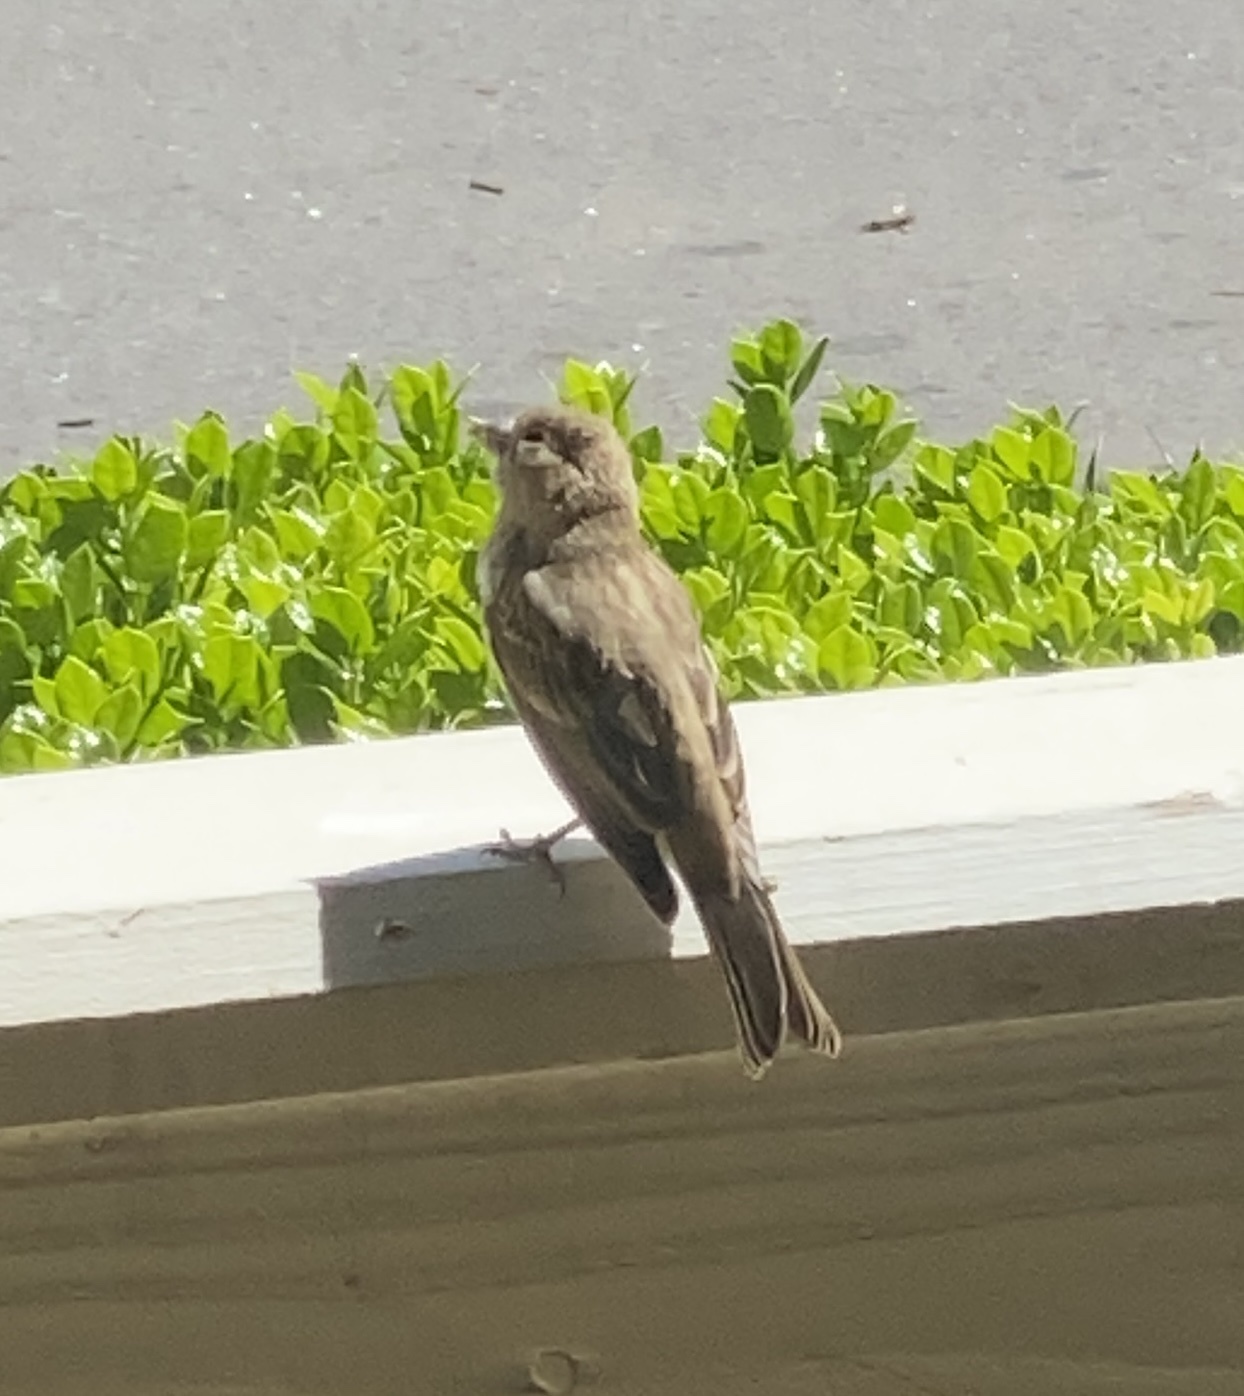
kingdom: Animalia
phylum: Chordata
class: Aves
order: Passeriformes
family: Fringillidae
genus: Haemorhous
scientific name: Haemorhous mexicanus
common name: House finch
